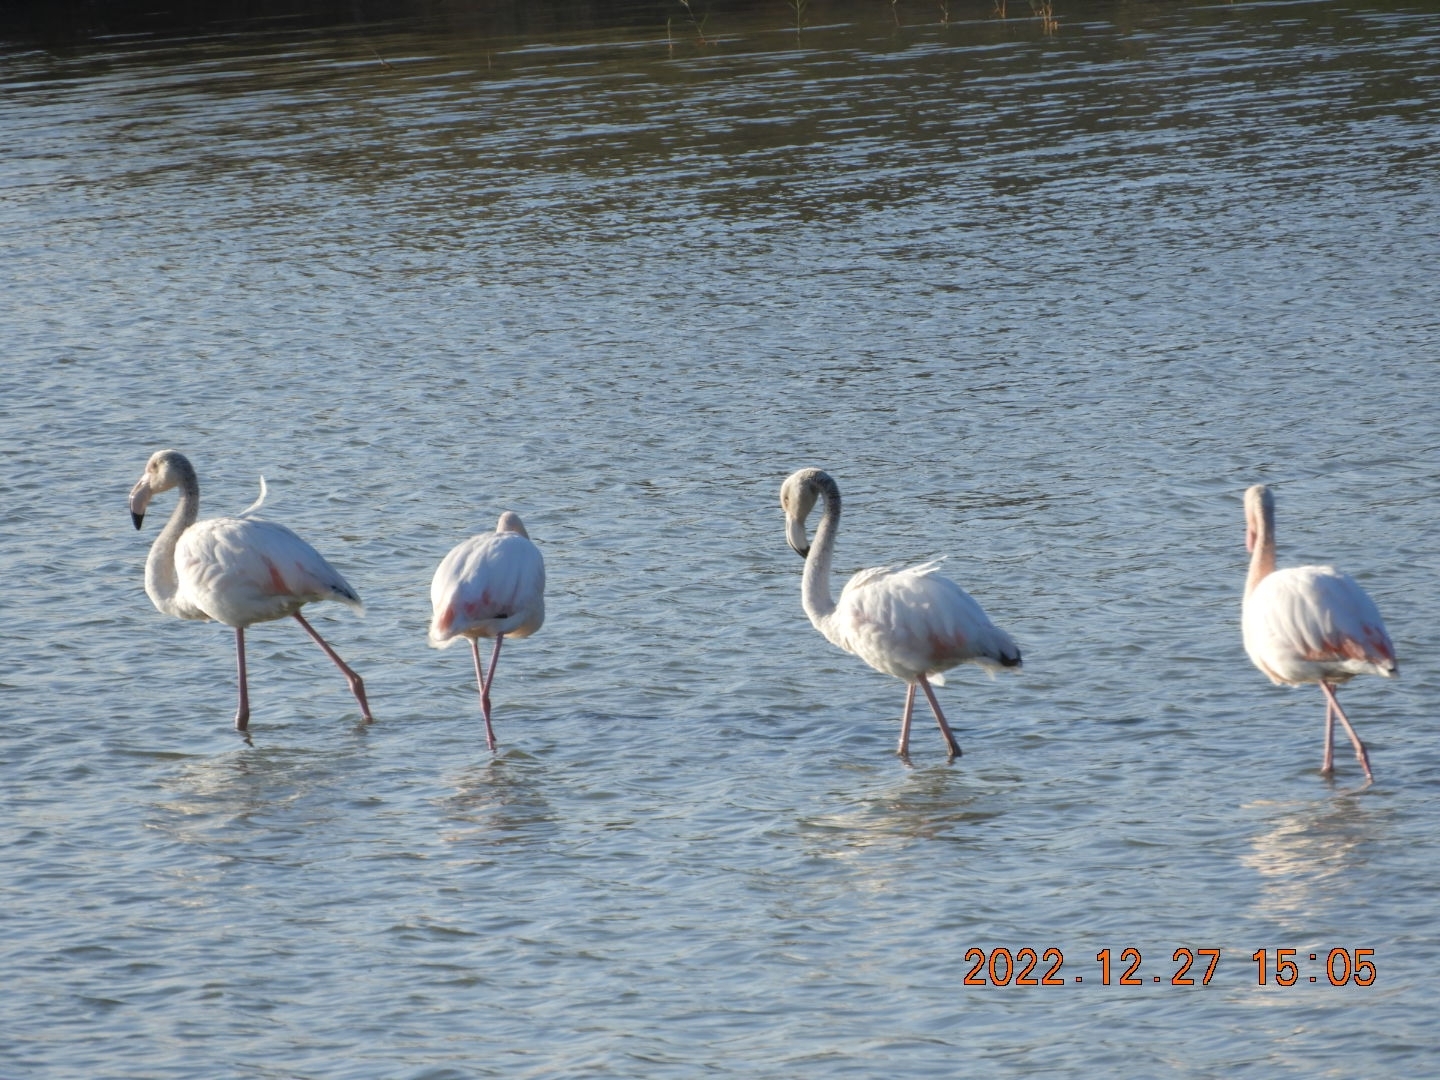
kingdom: Animalia
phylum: Chordata
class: Aves
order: Phoenicopteriformes
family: Phoenicopteridae
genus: Phoenicopterus
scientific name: Phoenicopterus roseus
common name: Greater flamingo
